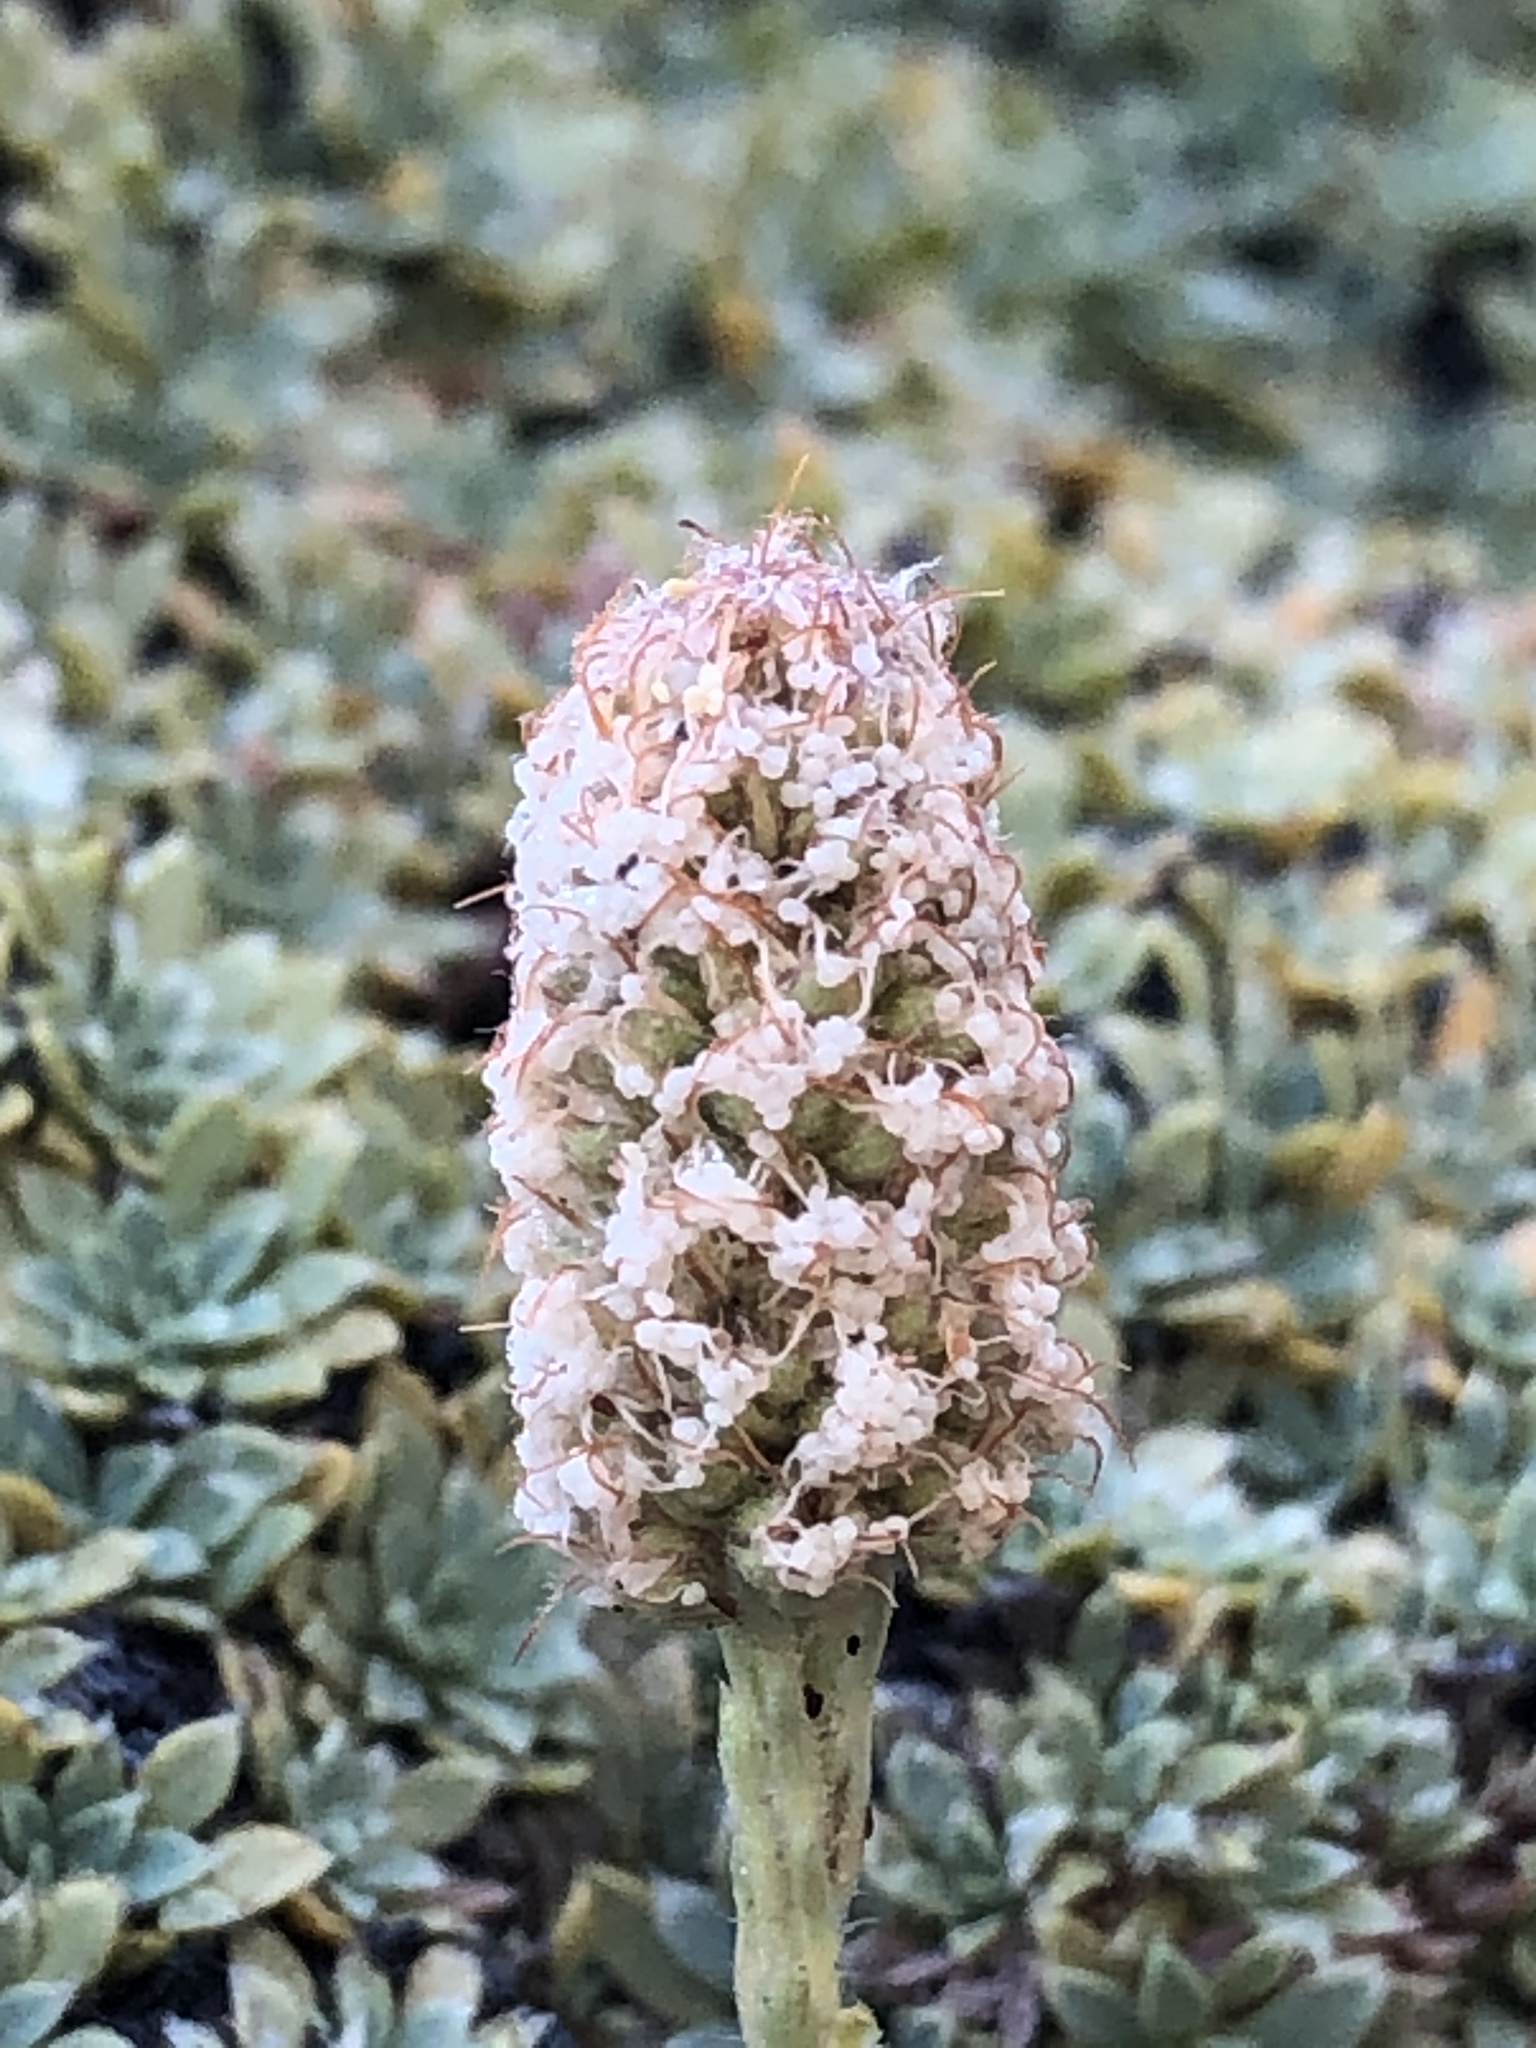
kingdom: Plantae
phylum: Tracheophyta
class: Magnoliopsida
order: Rosales
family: Rosaceae
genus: Petrophytum
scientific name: Petrophytum caespitosum
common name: Mat rockspirea
